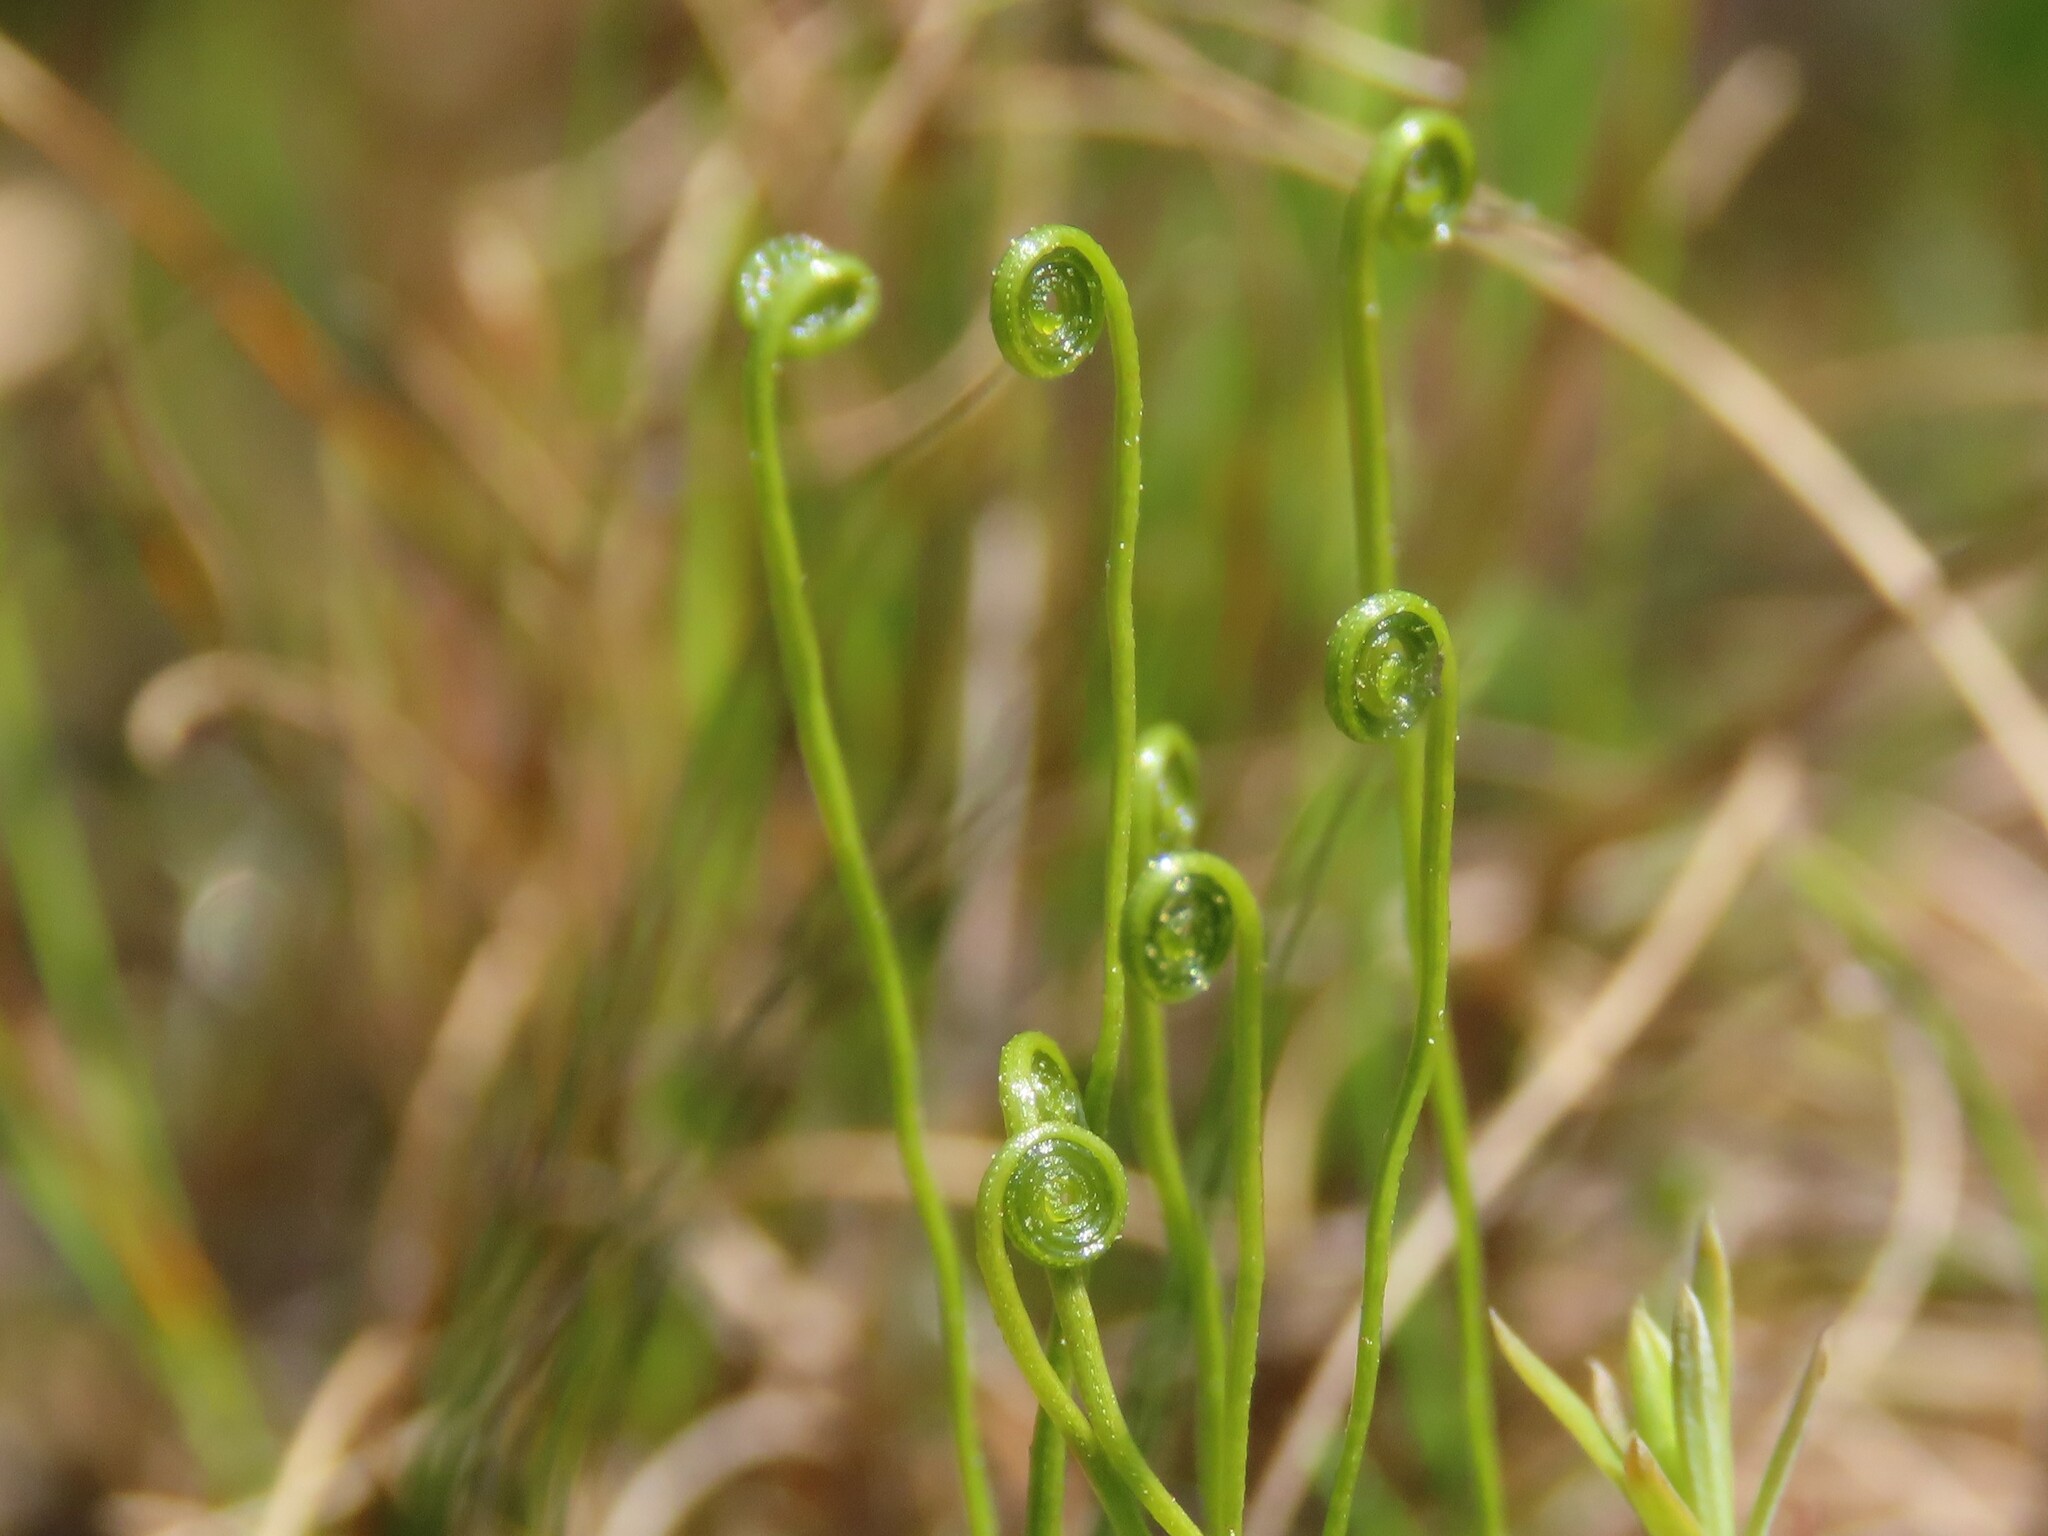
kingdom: Plantae
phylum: Tracheophyta
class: Polypodiopsida
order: Schizaeales
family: Schizaeaceae
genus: Schizaea
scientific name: Schizaea pusilla
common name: Curly-grass fern
